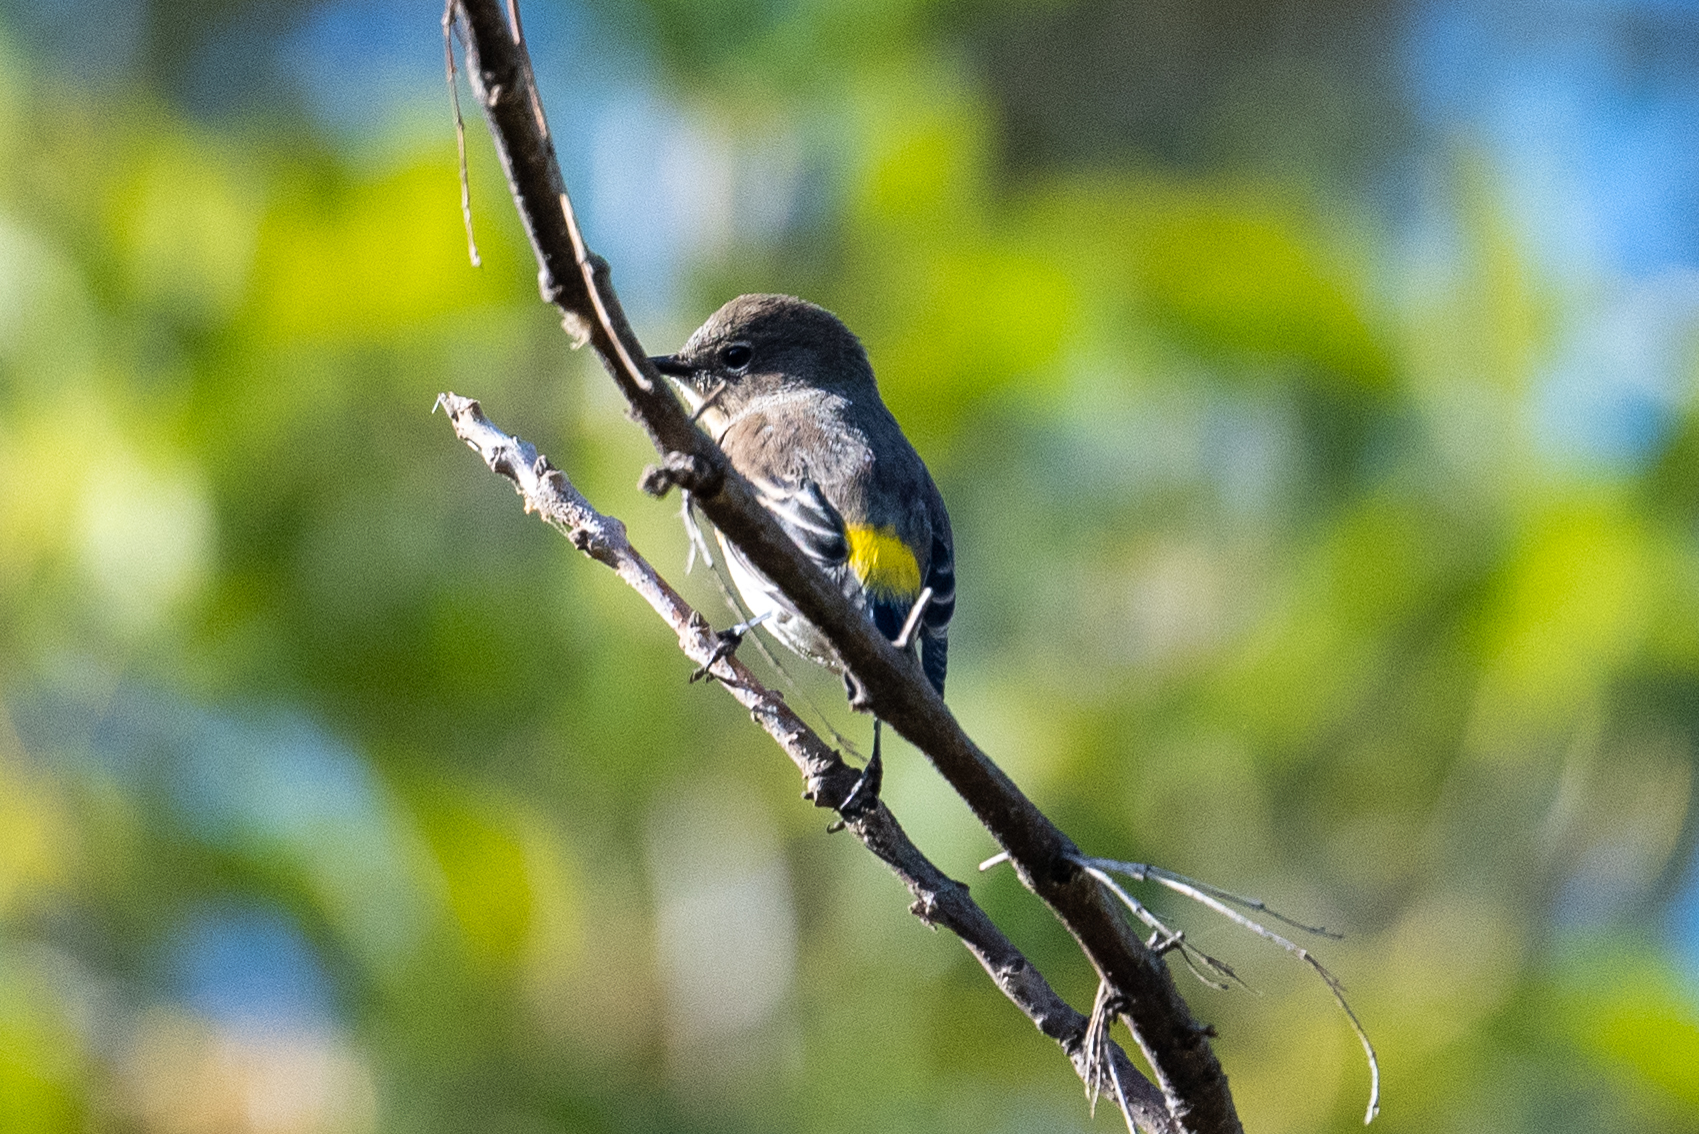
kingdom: Animalia
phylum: Chordata
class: Aves
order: Passeriformes
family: Parulidae
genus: Setophaga
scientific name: Setophaga coronata
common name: Myrtle warbler
